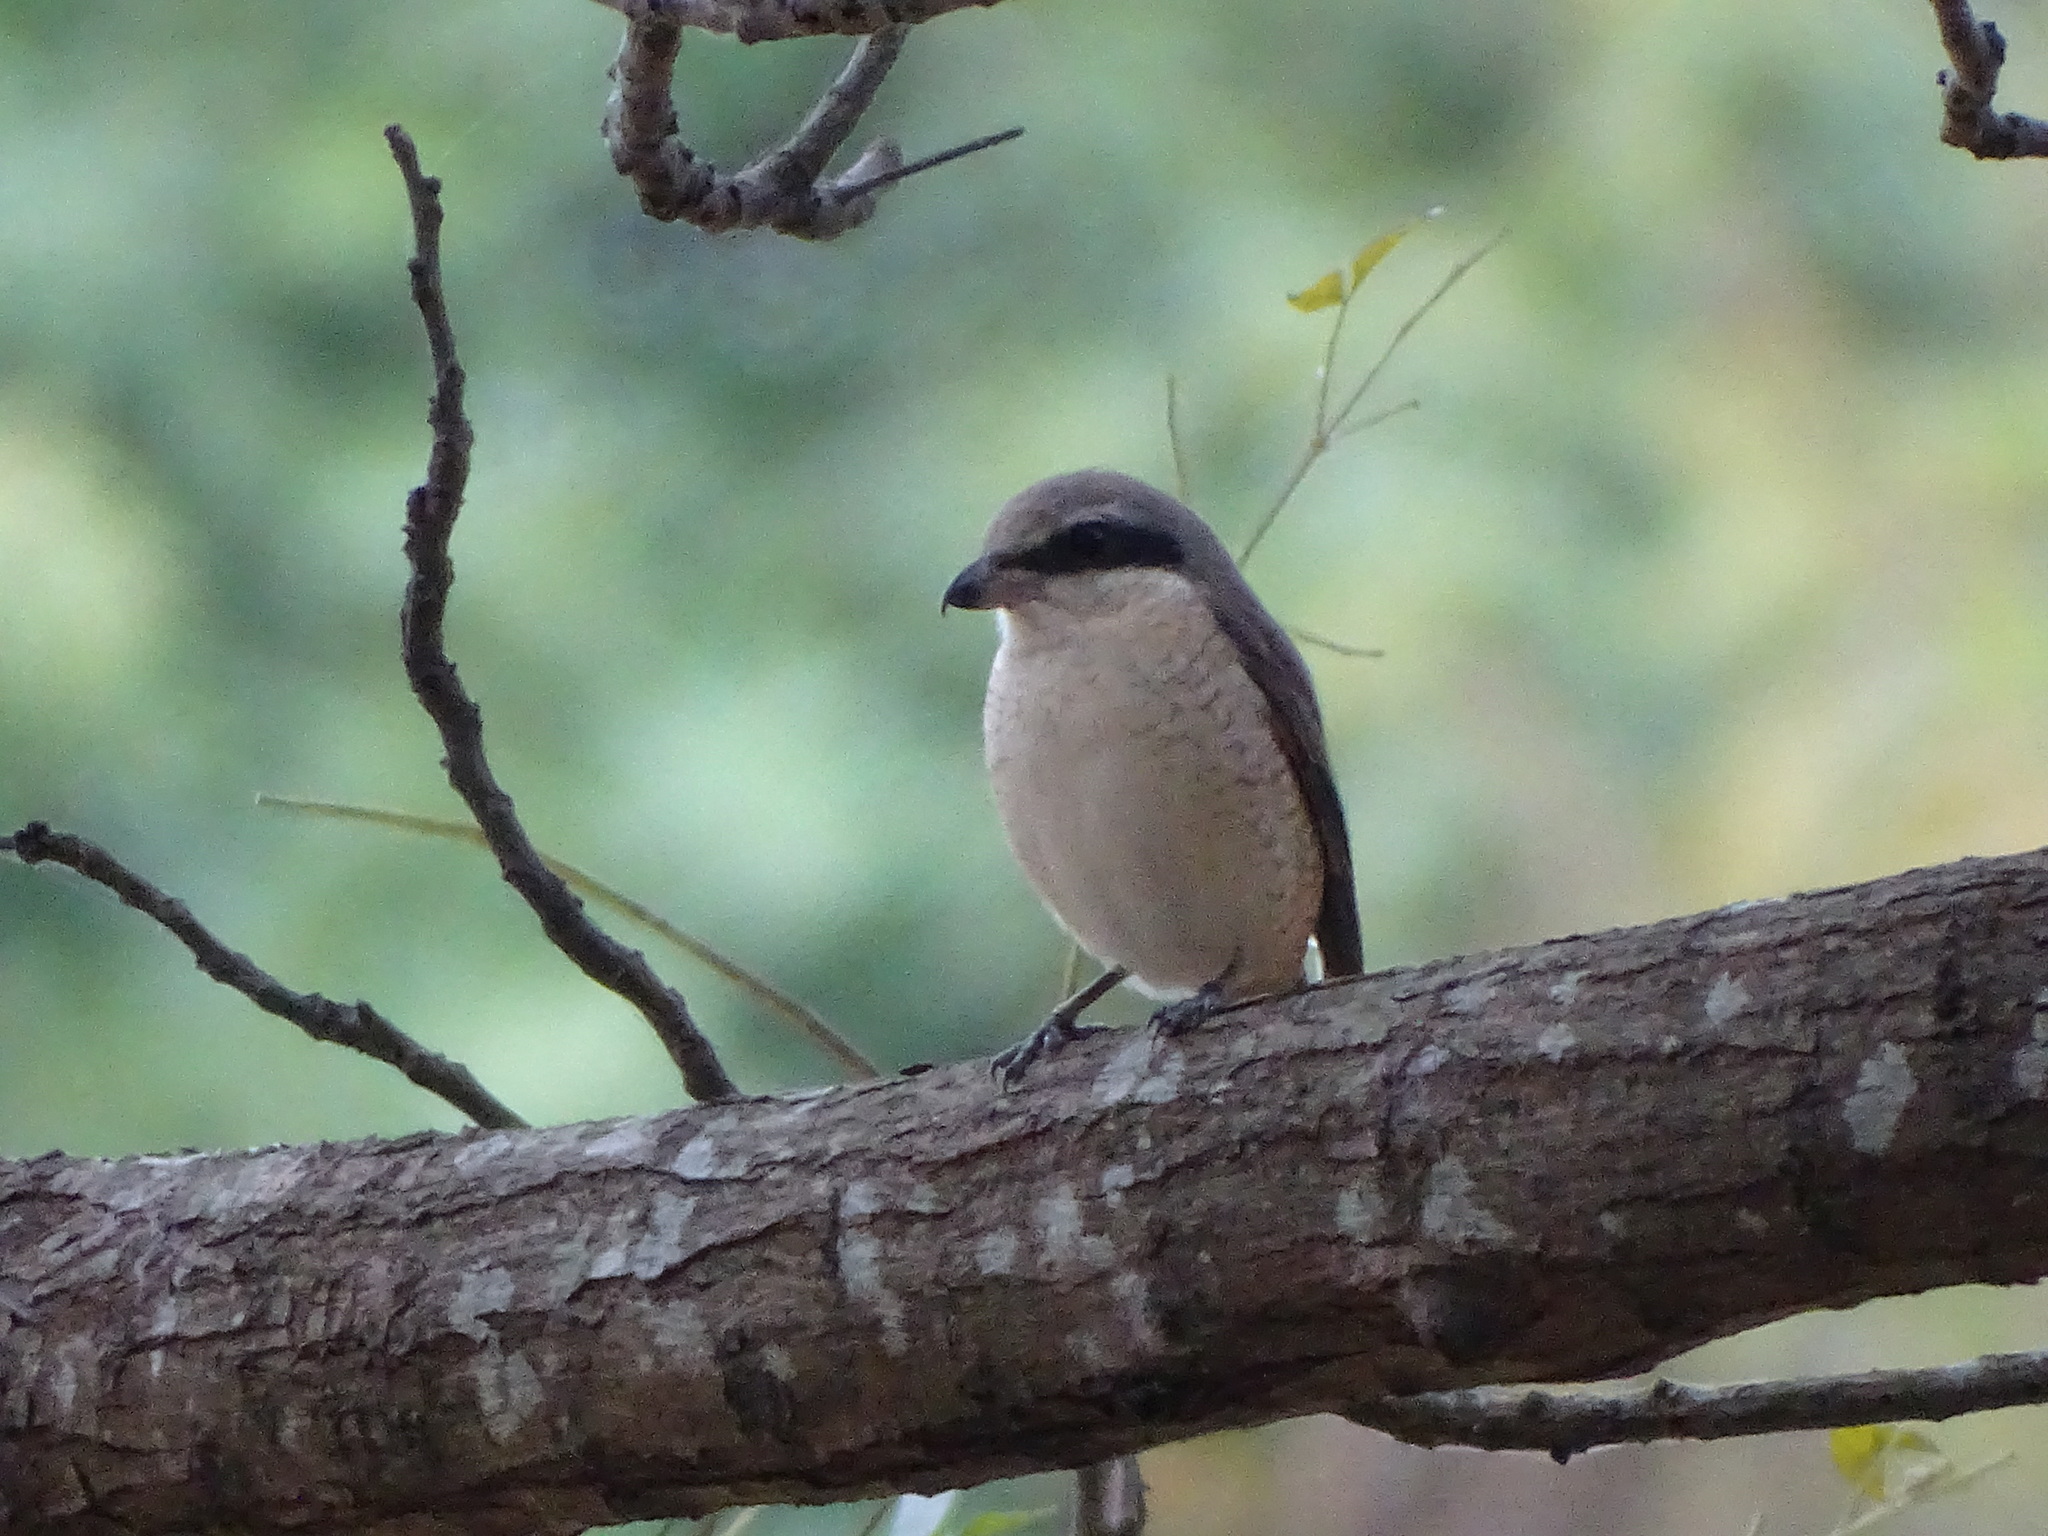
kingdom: Animalia
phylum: Chordata
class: Aves
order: Passeriformes
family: Laniidae
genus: Lanius
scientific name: Lanius cristatus
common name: Brown shrike
